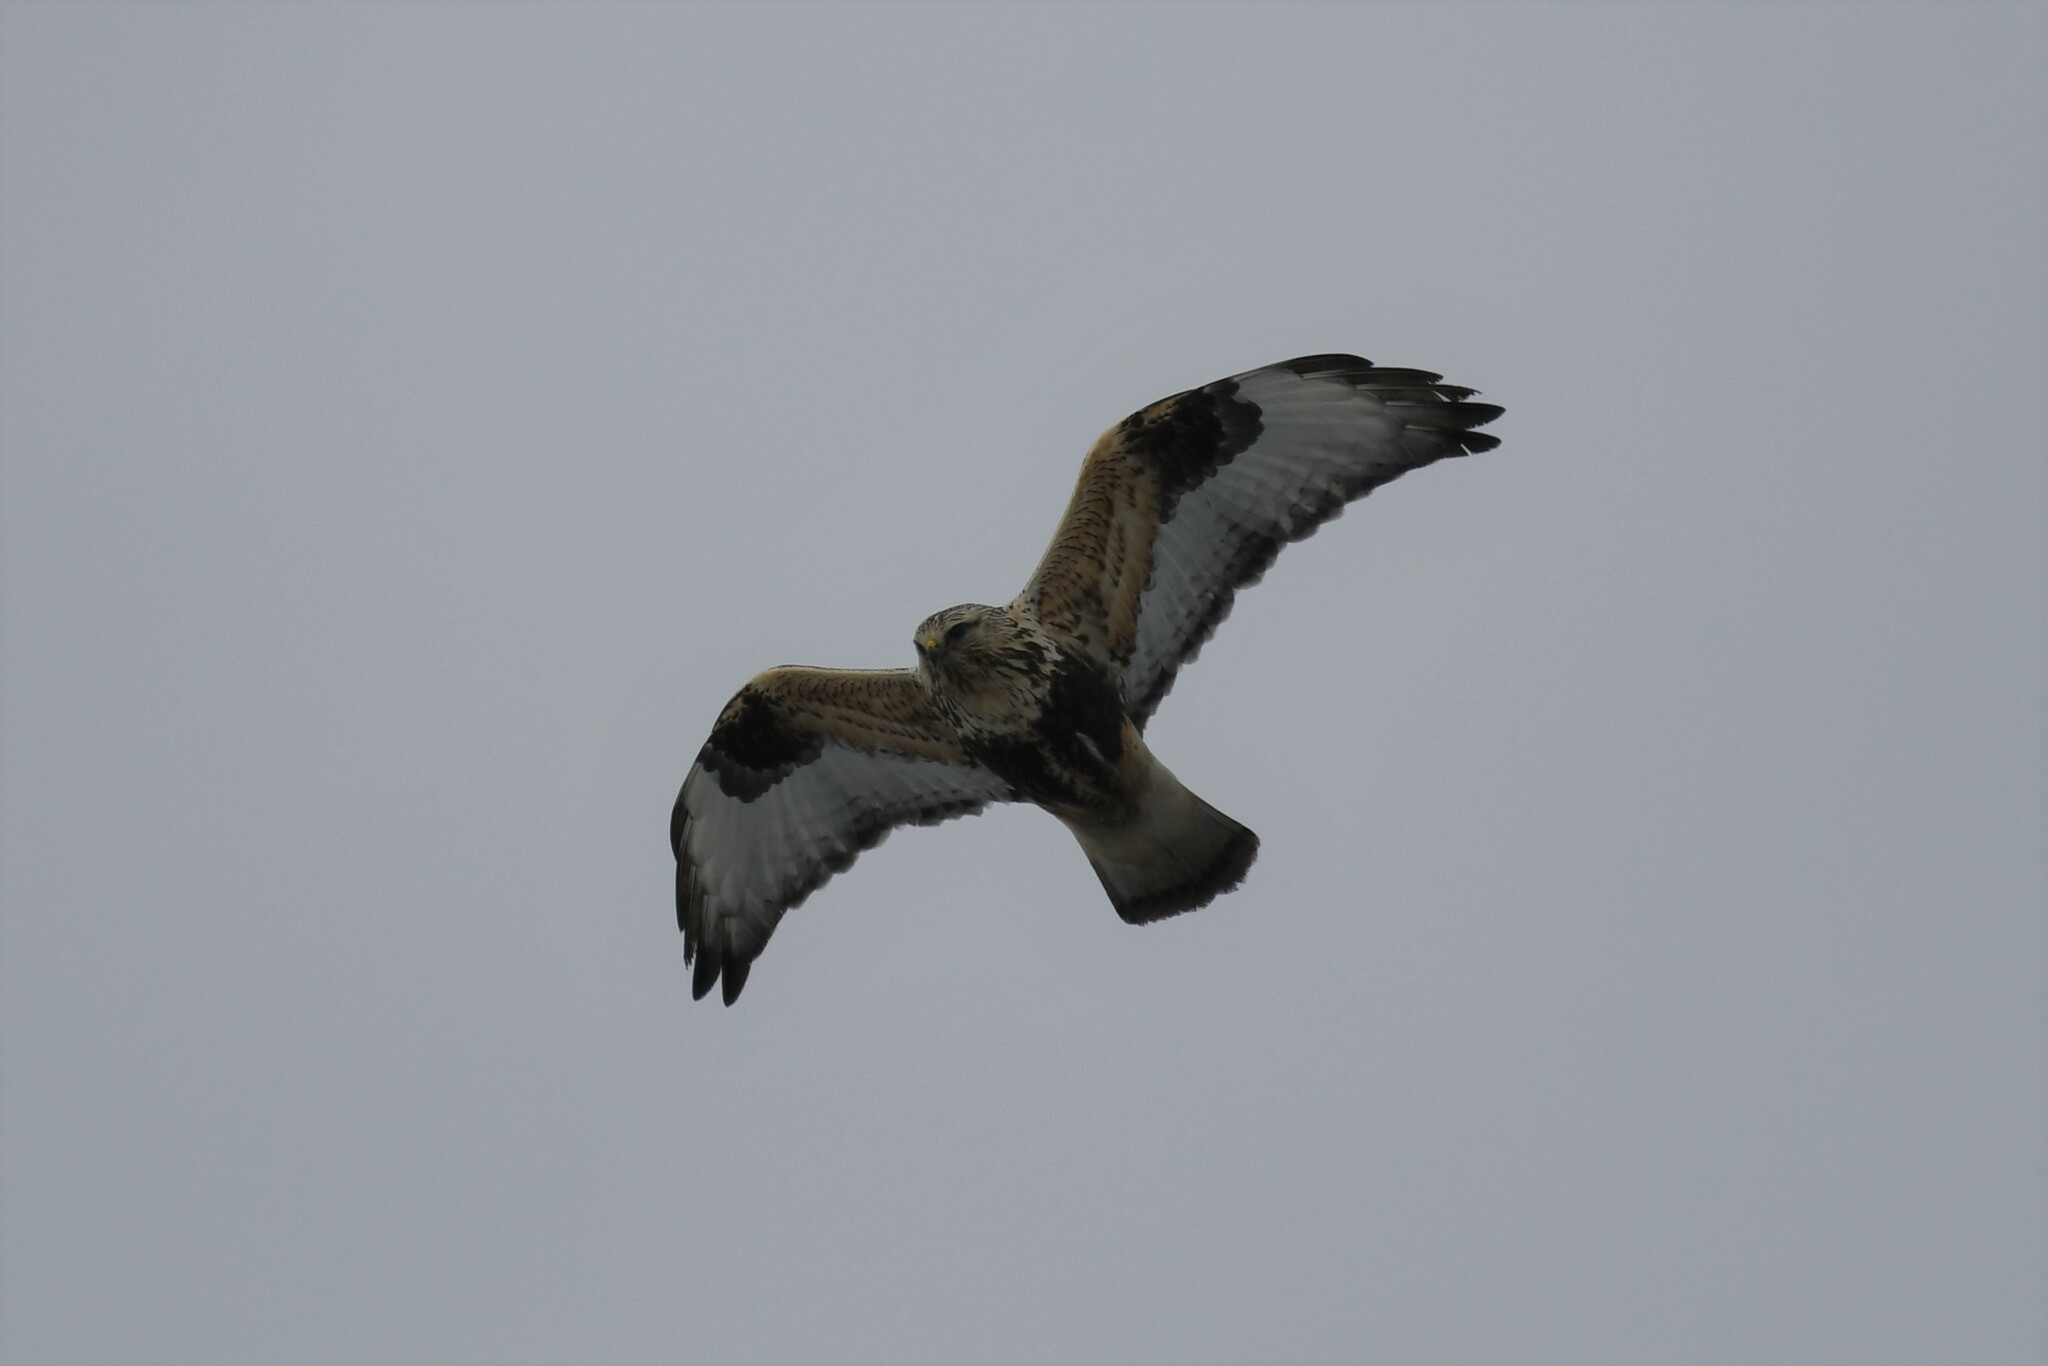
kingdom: Animalia
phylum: Chordata
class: Aves
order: Accipitriformes
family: Accipitridae
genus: Buteo
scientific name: Buteo lagopus
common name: Rough-legged buzzard
